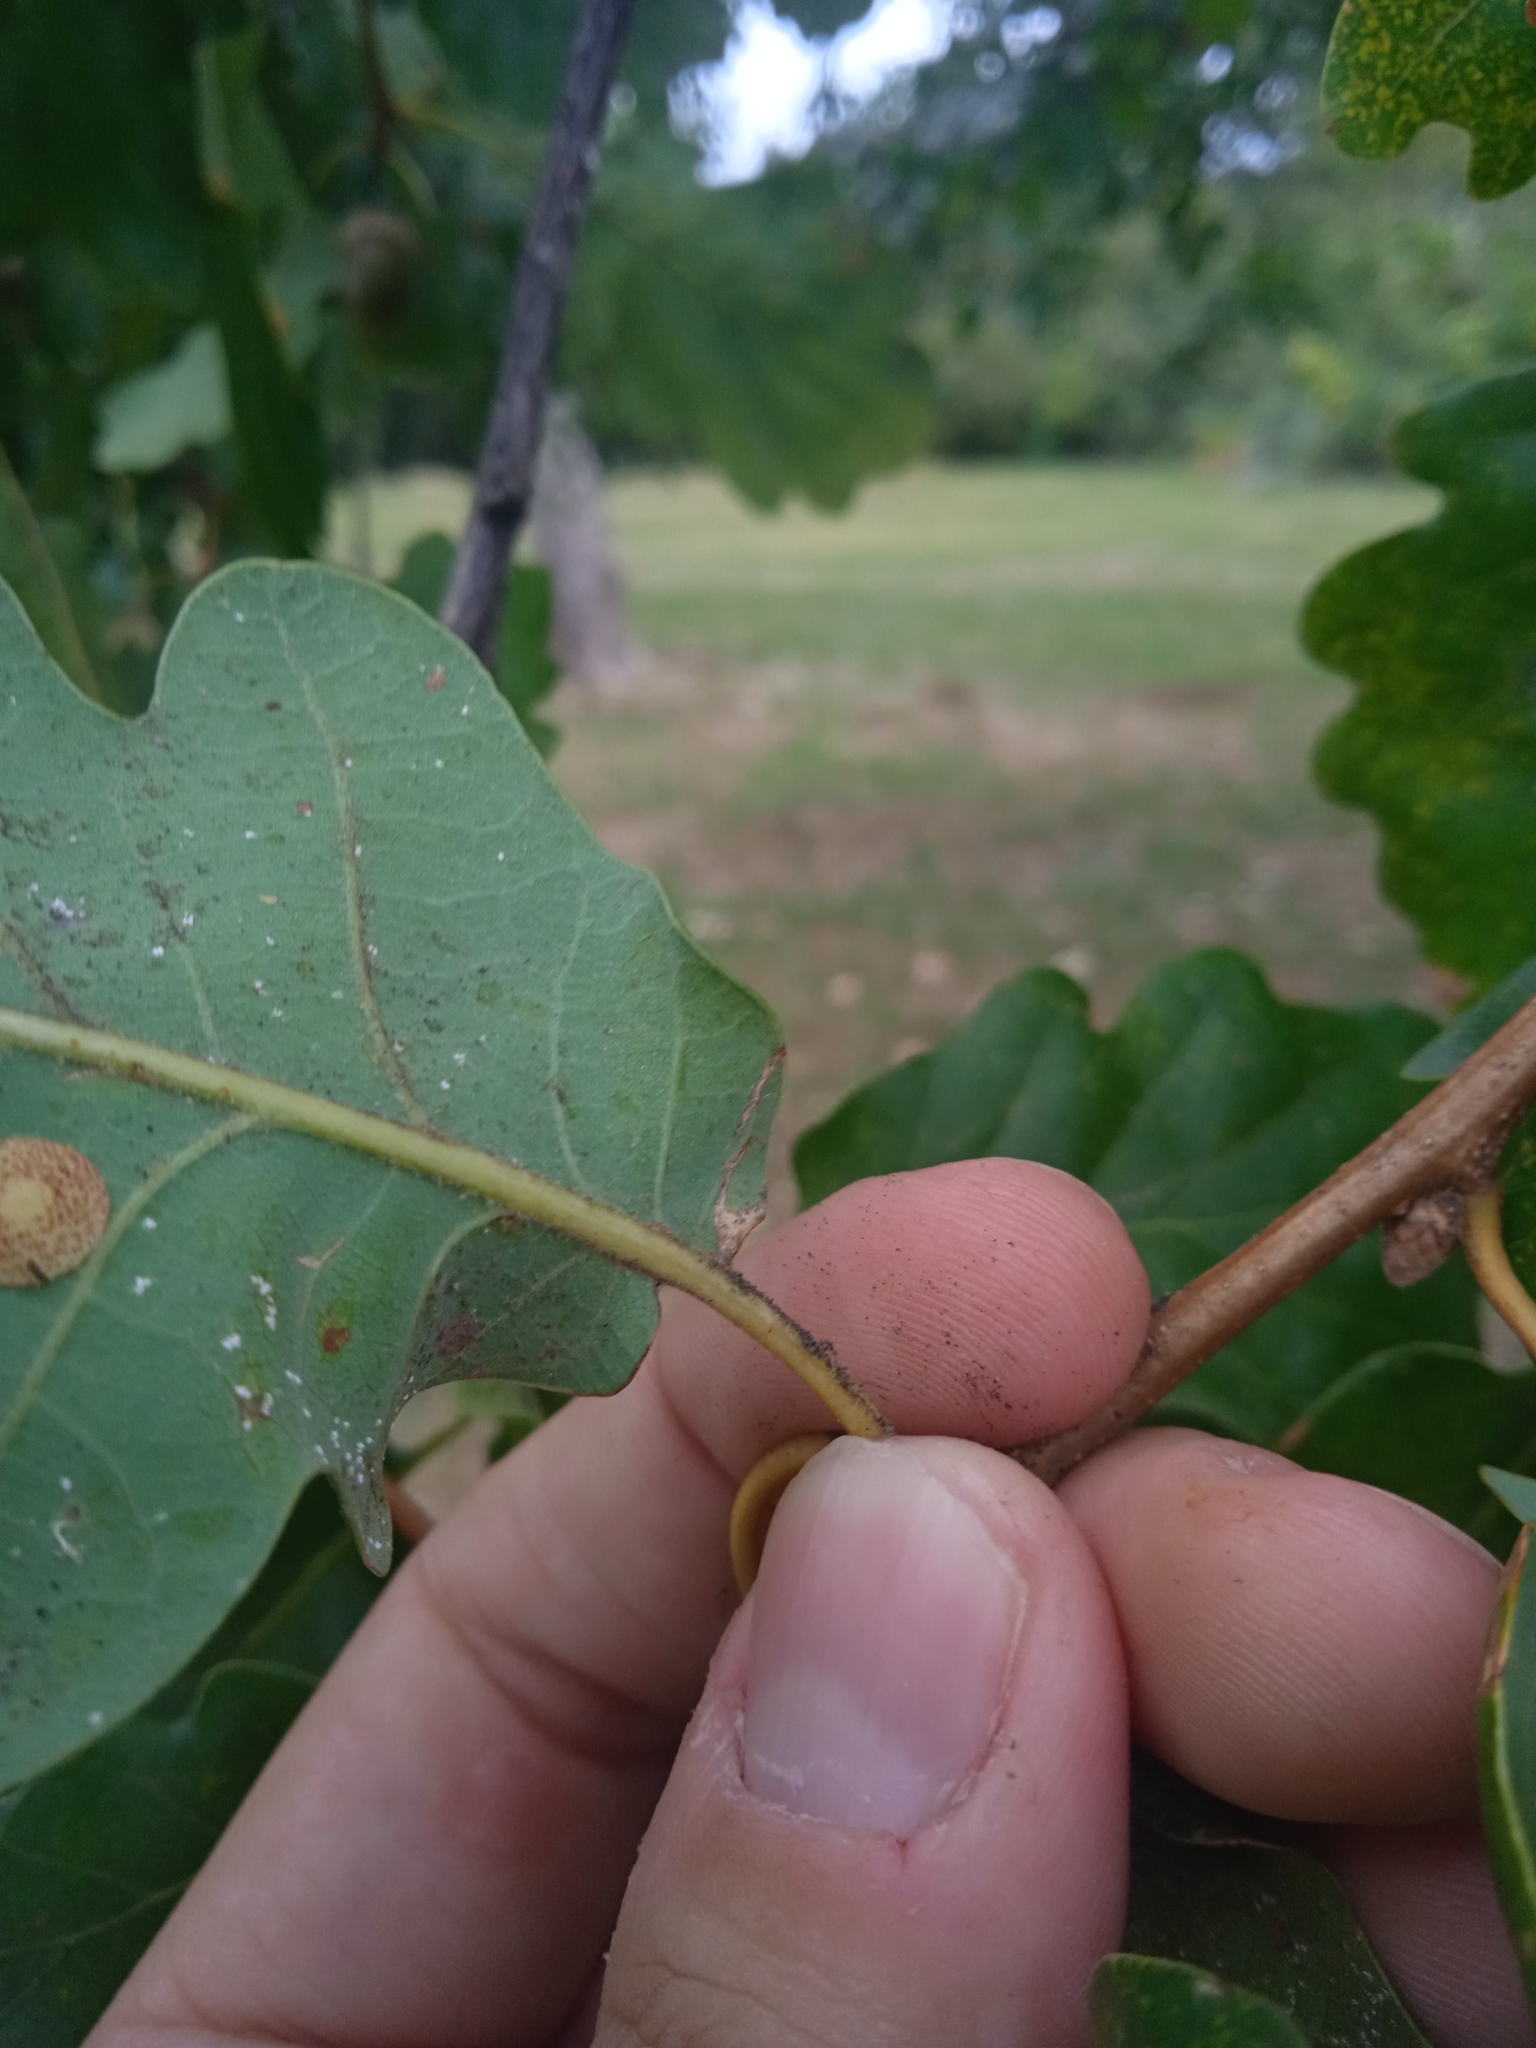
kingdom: Plantae
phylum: Tracheophyta
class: Magnoliopsida
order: Fagales
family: Fagaceae
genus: Quercus
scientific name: Quercus robur
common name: Pedunculate oak
